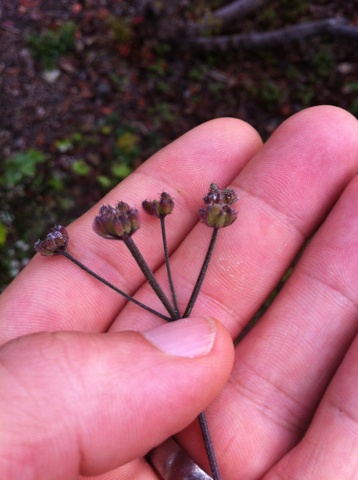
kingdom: Plantae
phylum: Tracheophyta
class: Magnoliopsida
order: Apiales
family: Apiaceae
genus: Torilis
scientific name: Torilis arvensis
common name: Spreading hedge-parsley
